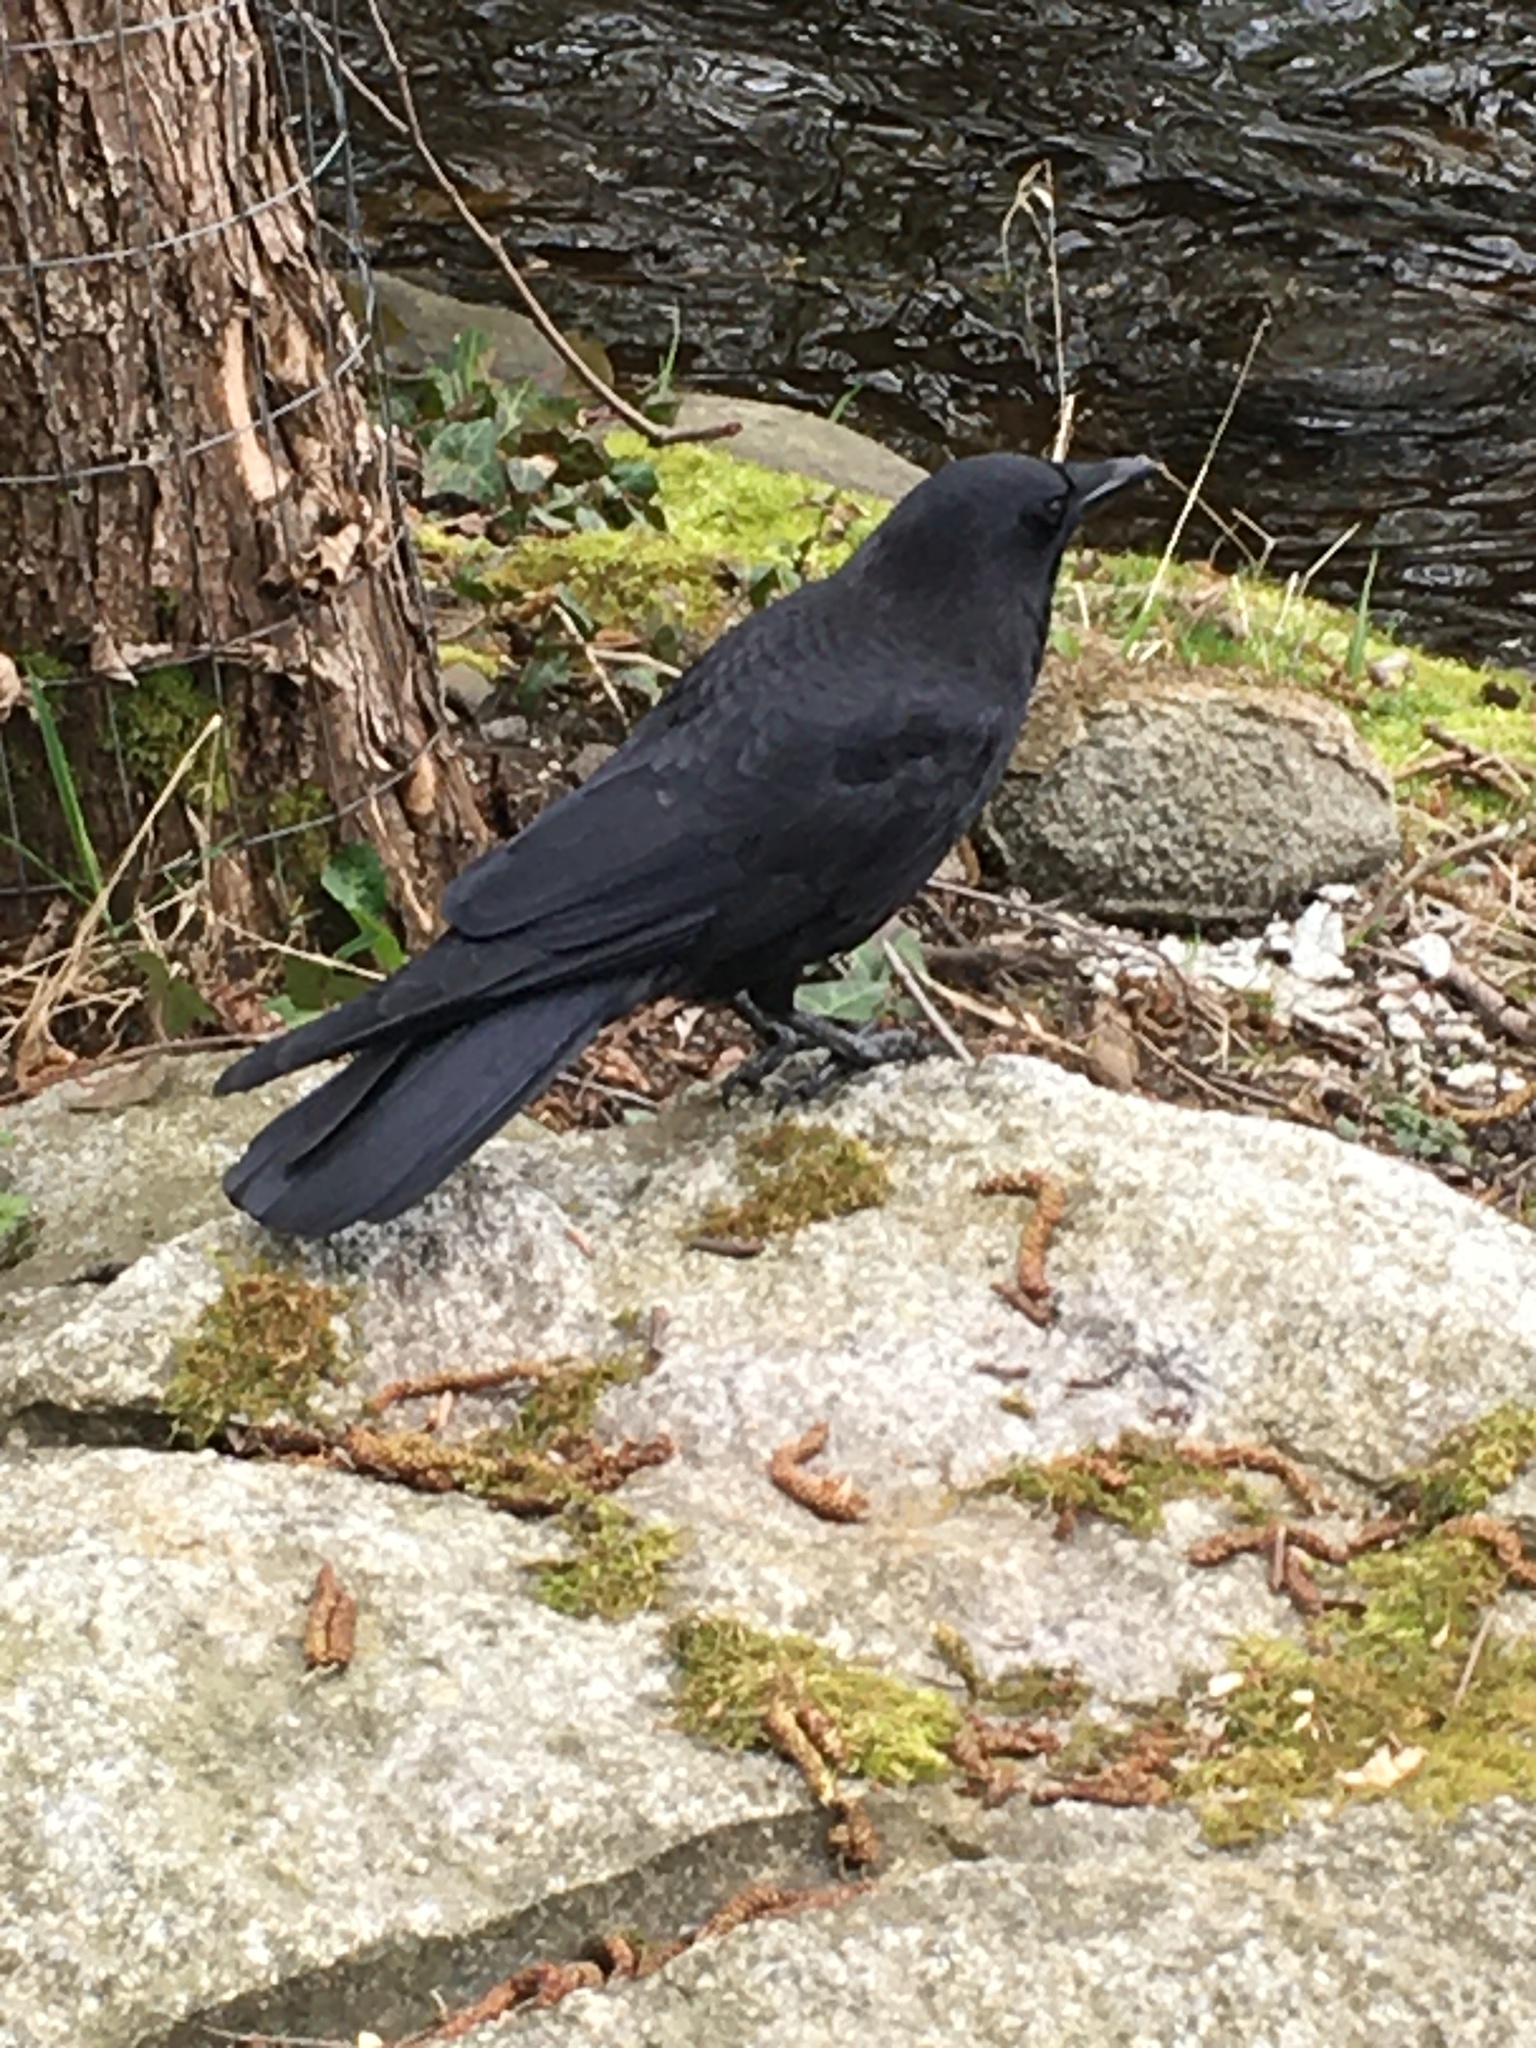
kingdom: Animalia
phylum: Chordata
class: Aves
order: Passeriformes
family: Corvidae
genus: Corvus
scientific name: Corvus brachyrhynchos
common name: American crow
